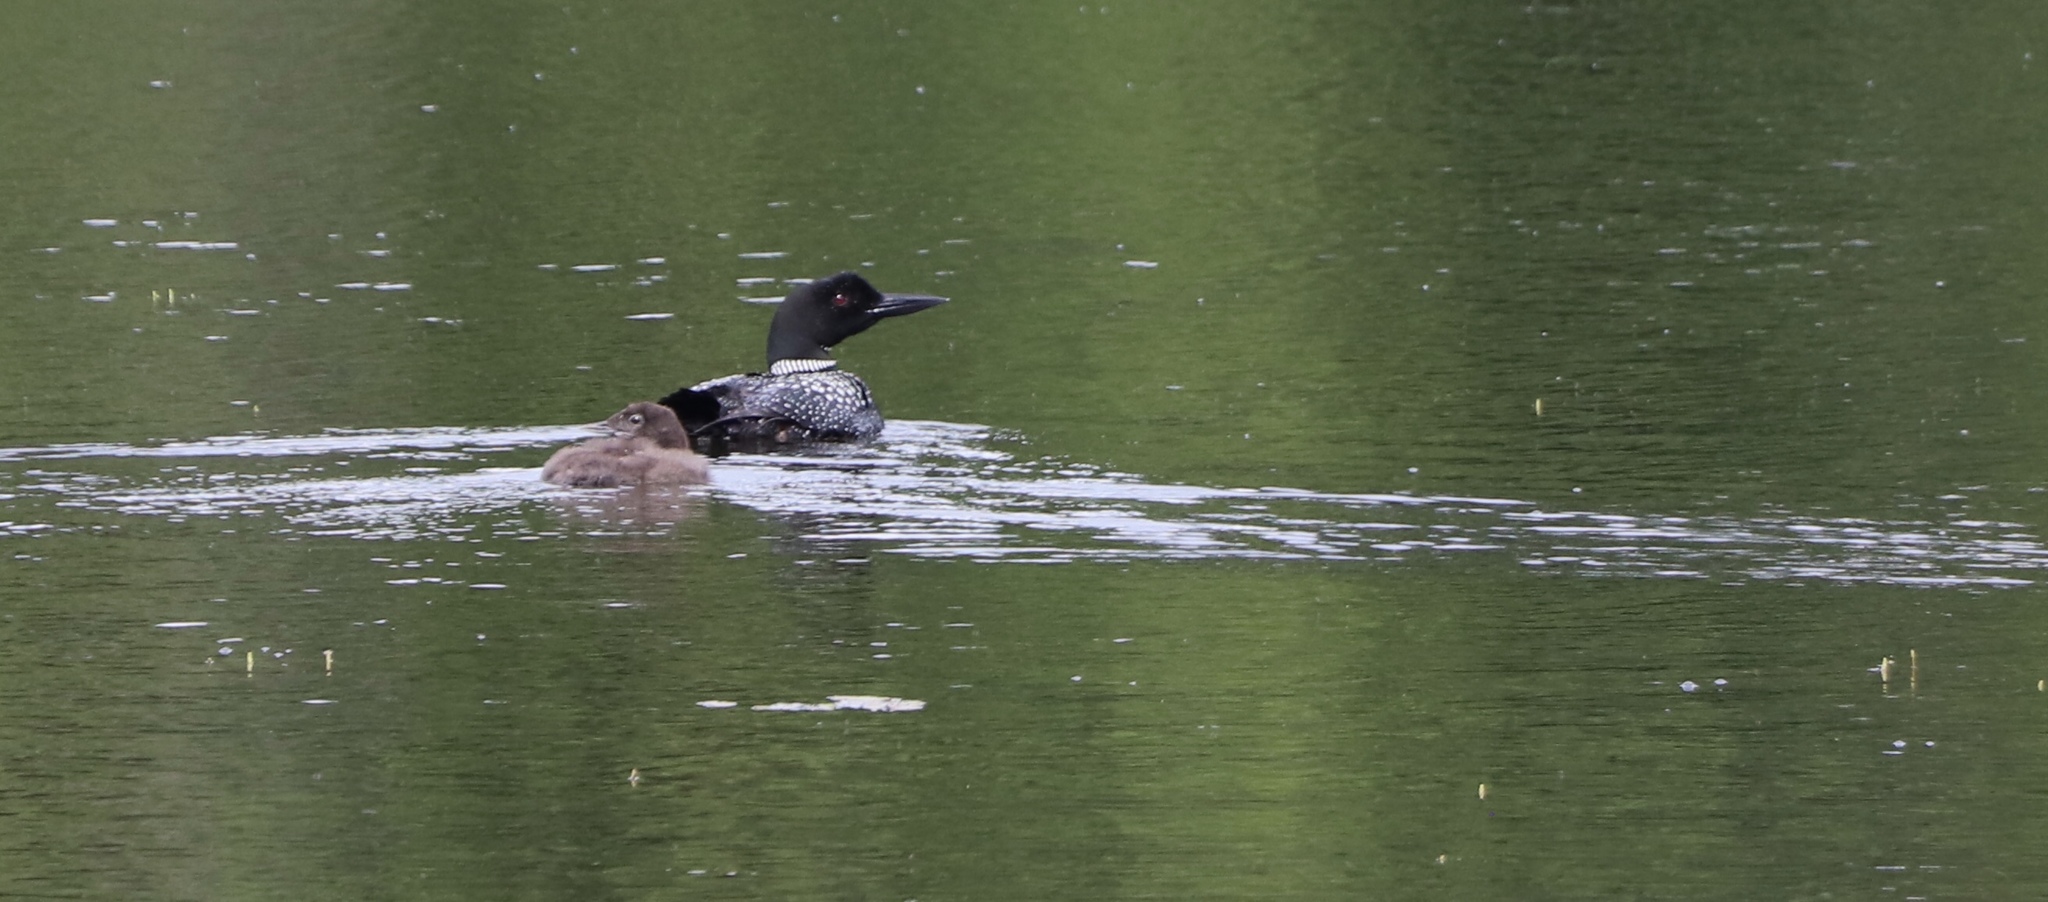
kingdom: Animalia
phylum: Chordata
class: Aves
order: Gaviiformes
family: Gaviidae
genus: Gavia
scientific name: Gavia immer
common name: Common loon
